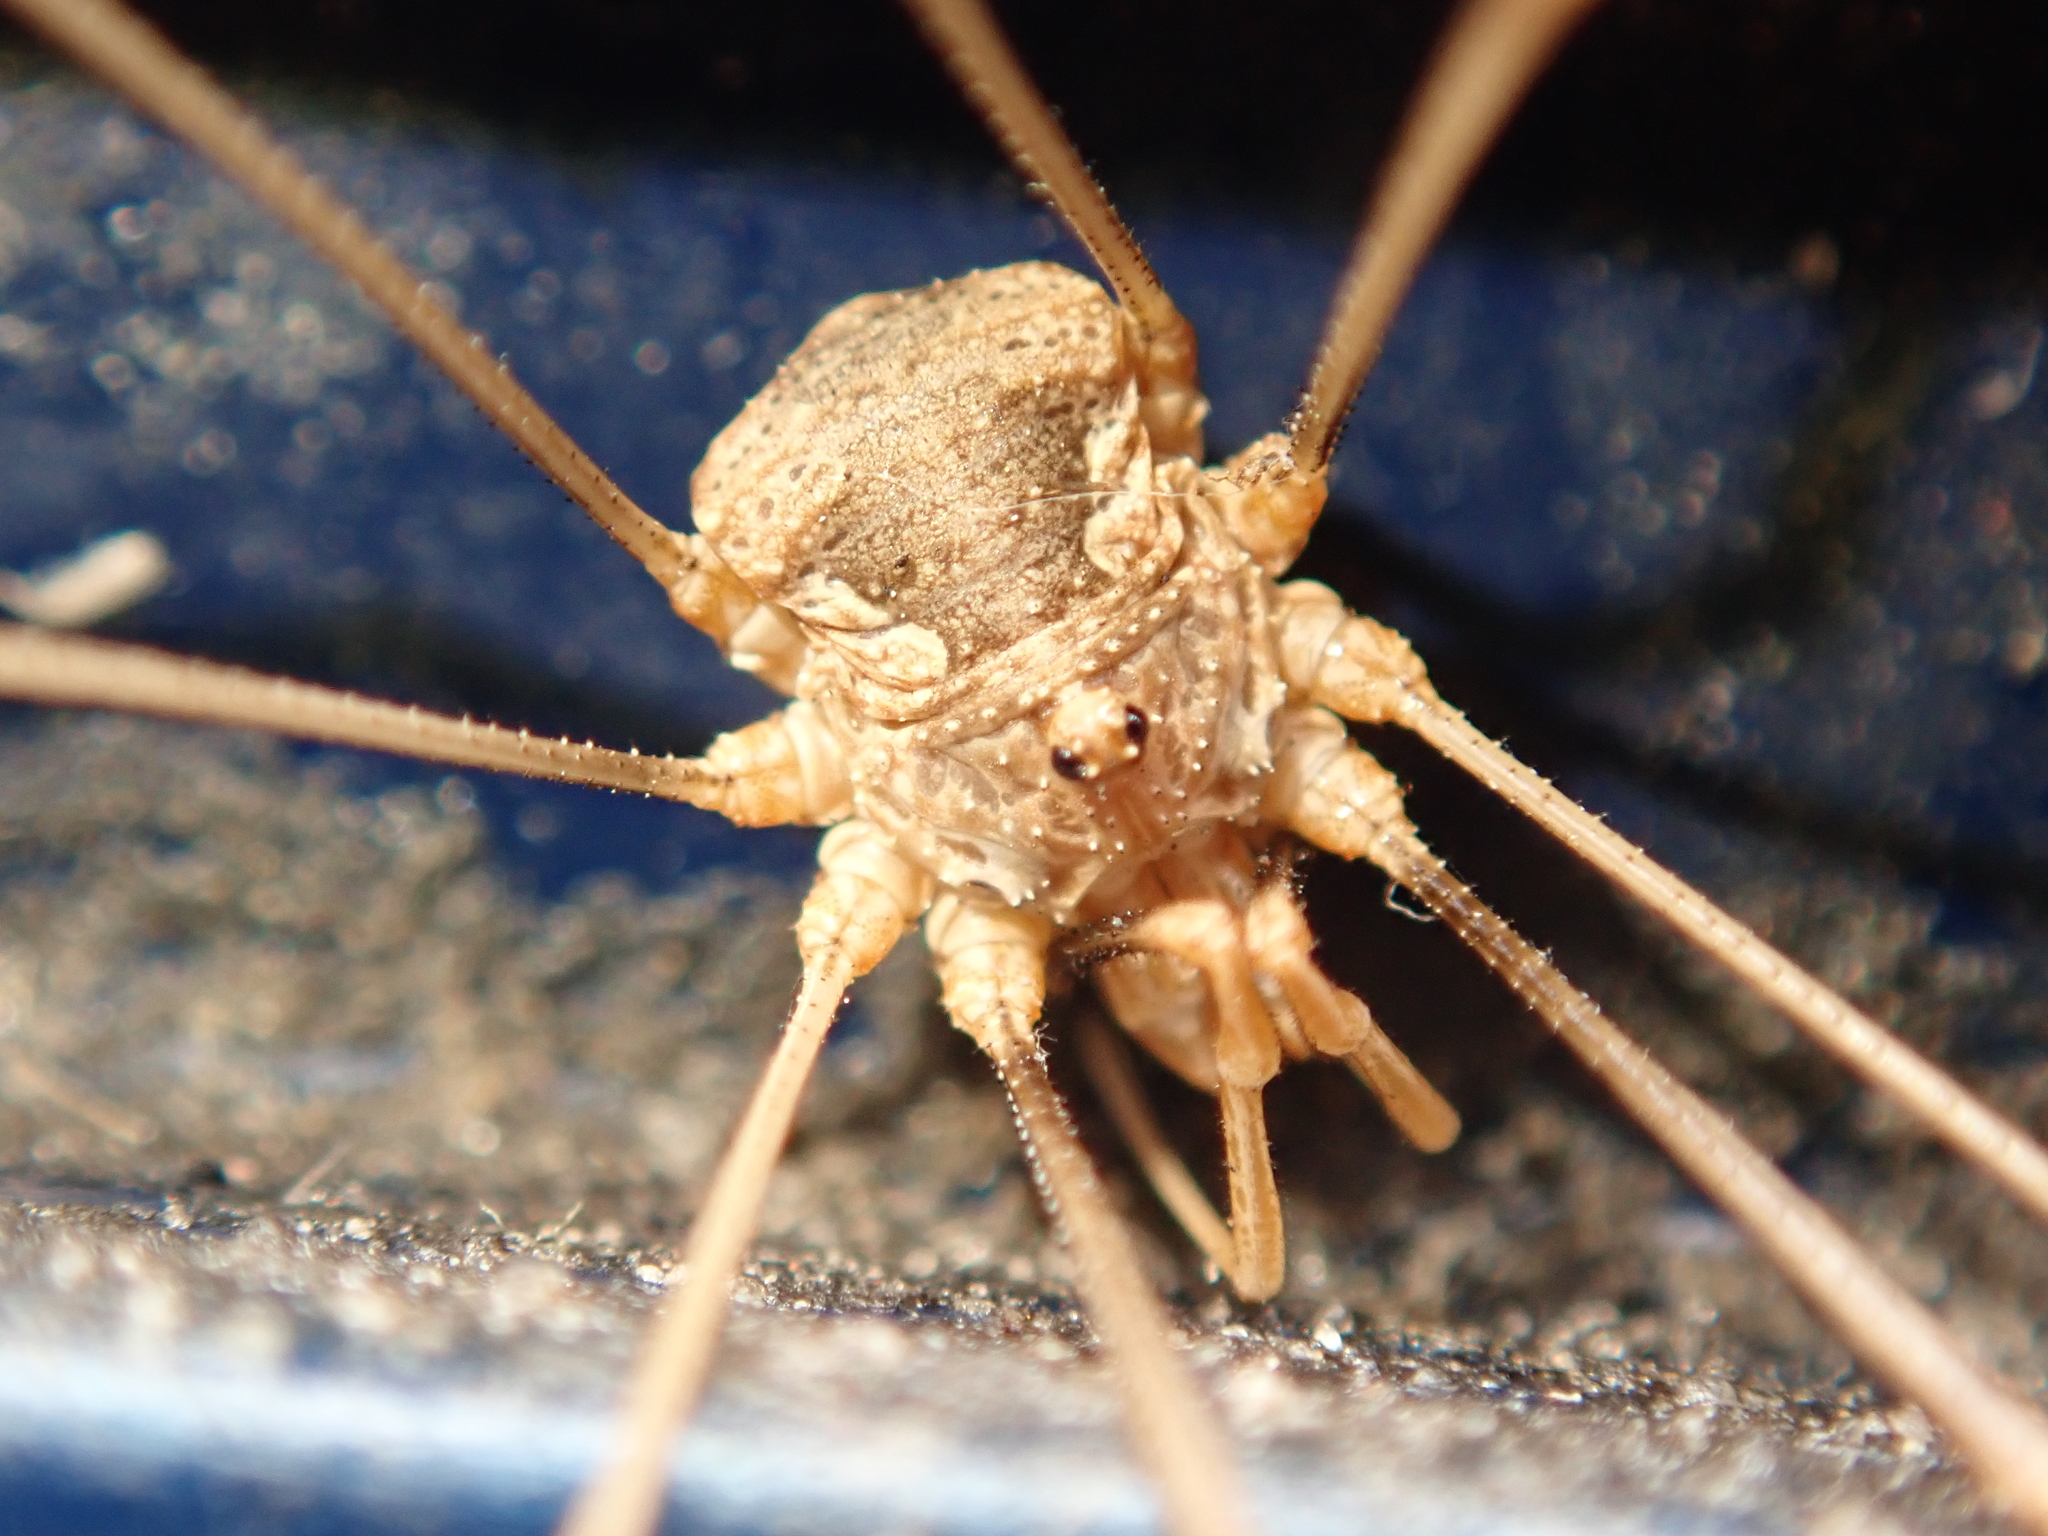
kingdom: Animalia
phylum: Arthropoda
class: Arachnida
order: Opiliones
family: Phalangiidae
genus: Phalangium
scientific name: Phalangium opilio
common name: Daddy longleg
